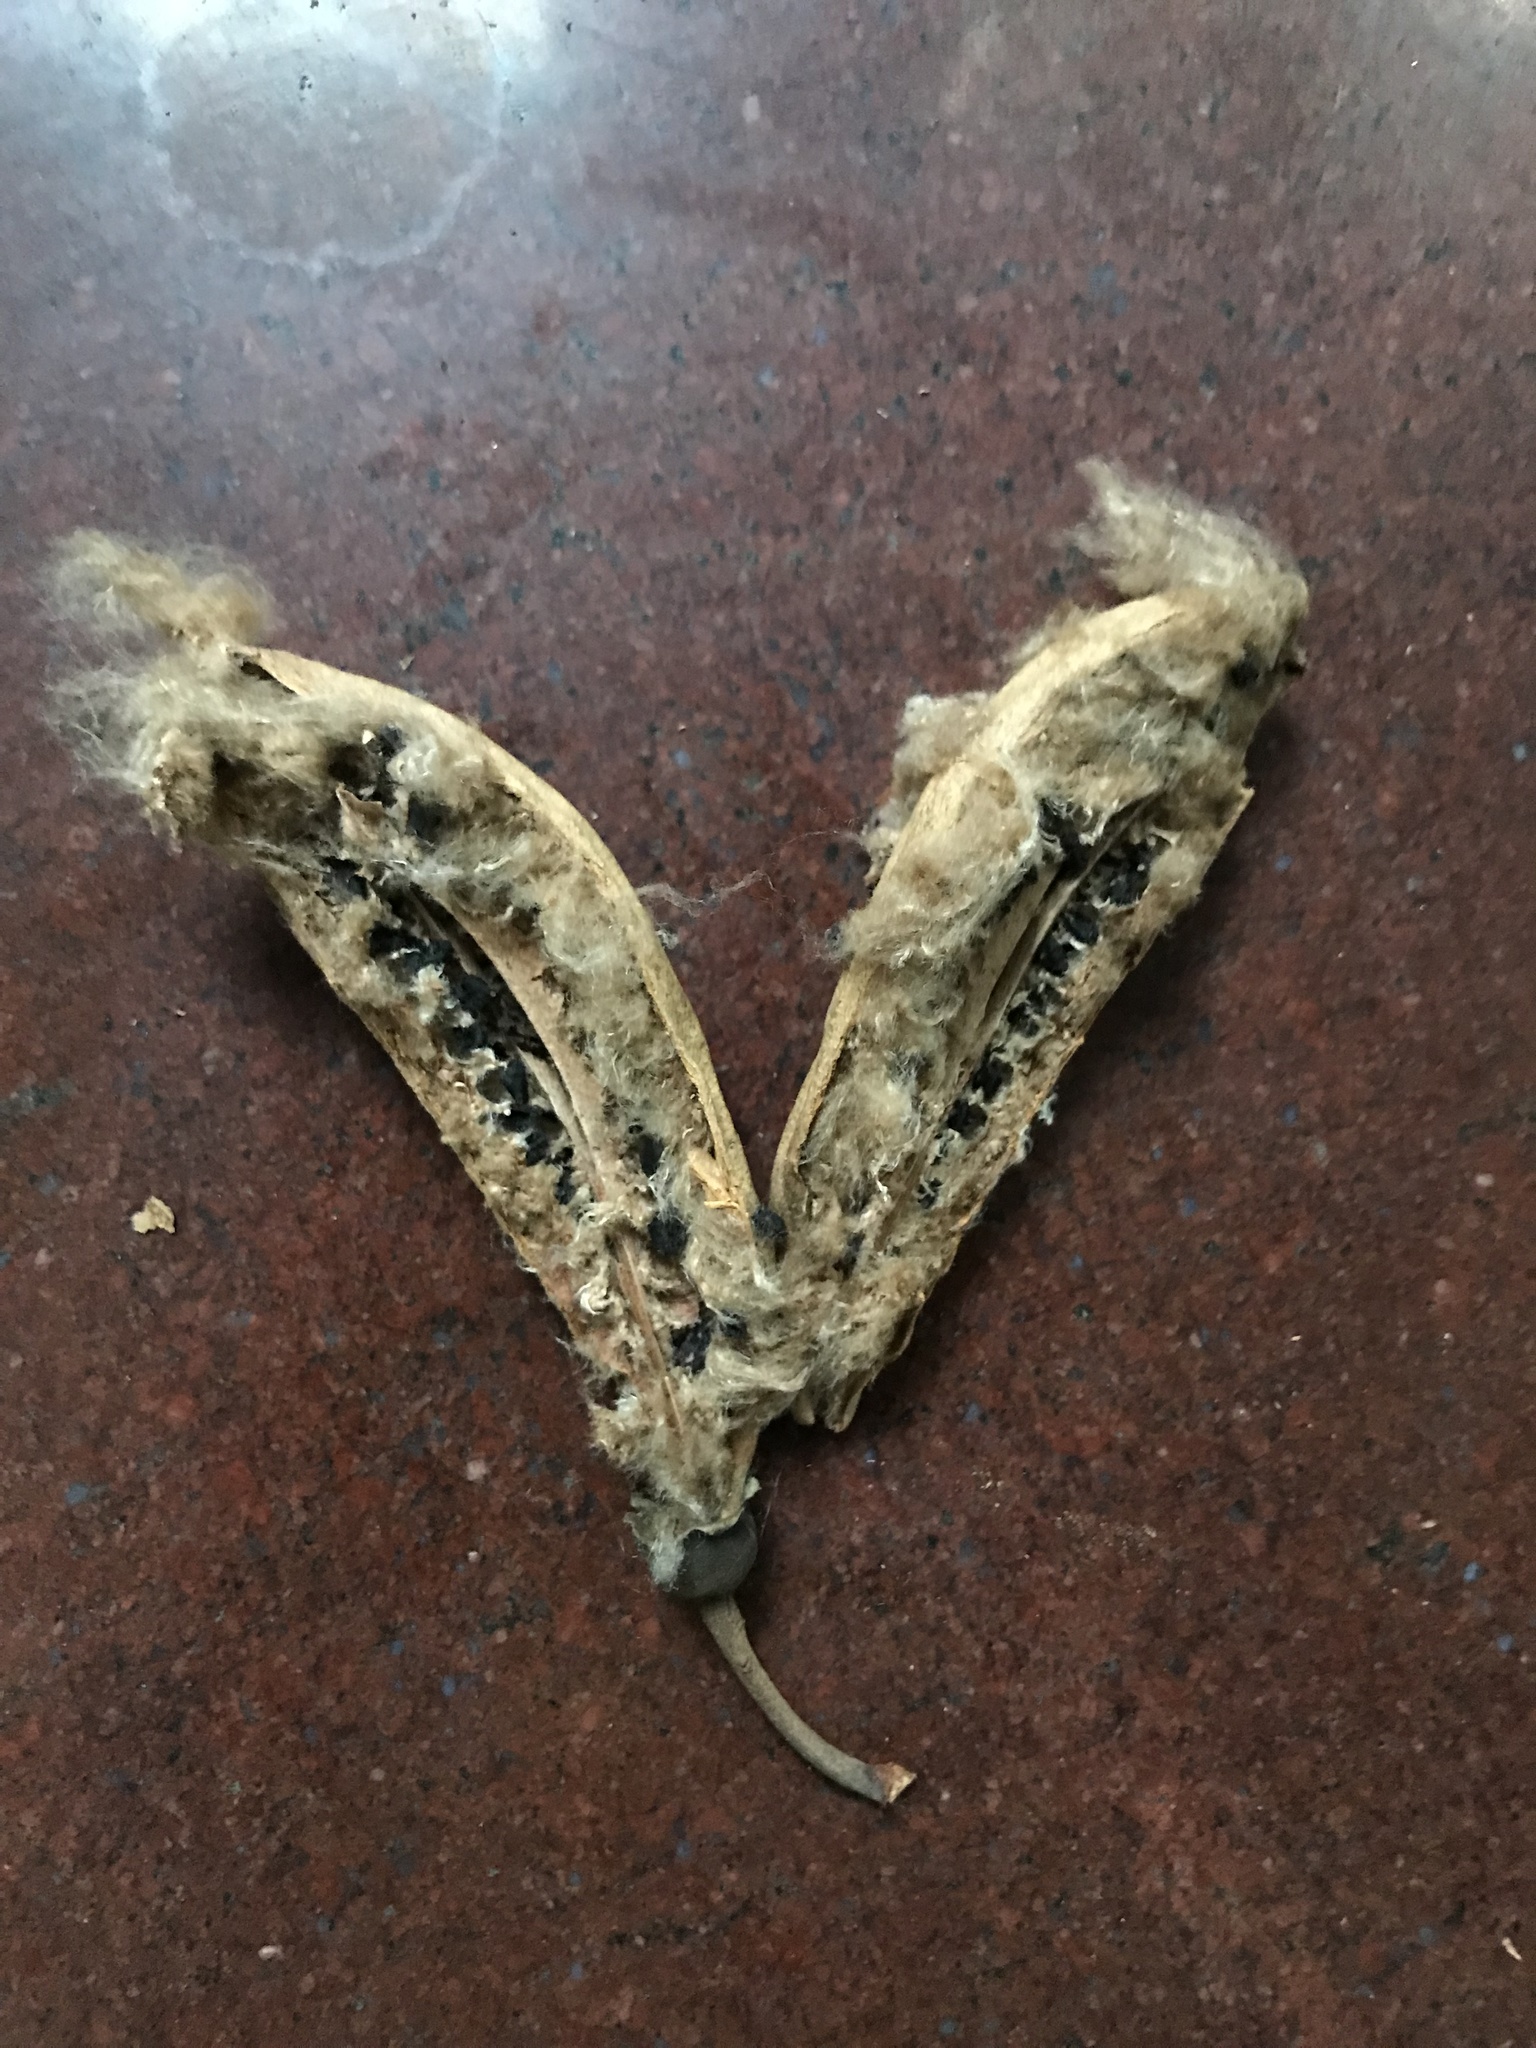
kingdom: Plantae
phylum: Tracheophyta
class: Magnoliopsida
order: Malvales
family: Malvaceae
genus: Bombax
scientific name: Bombax ceiba
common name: Northern-cottonwood
